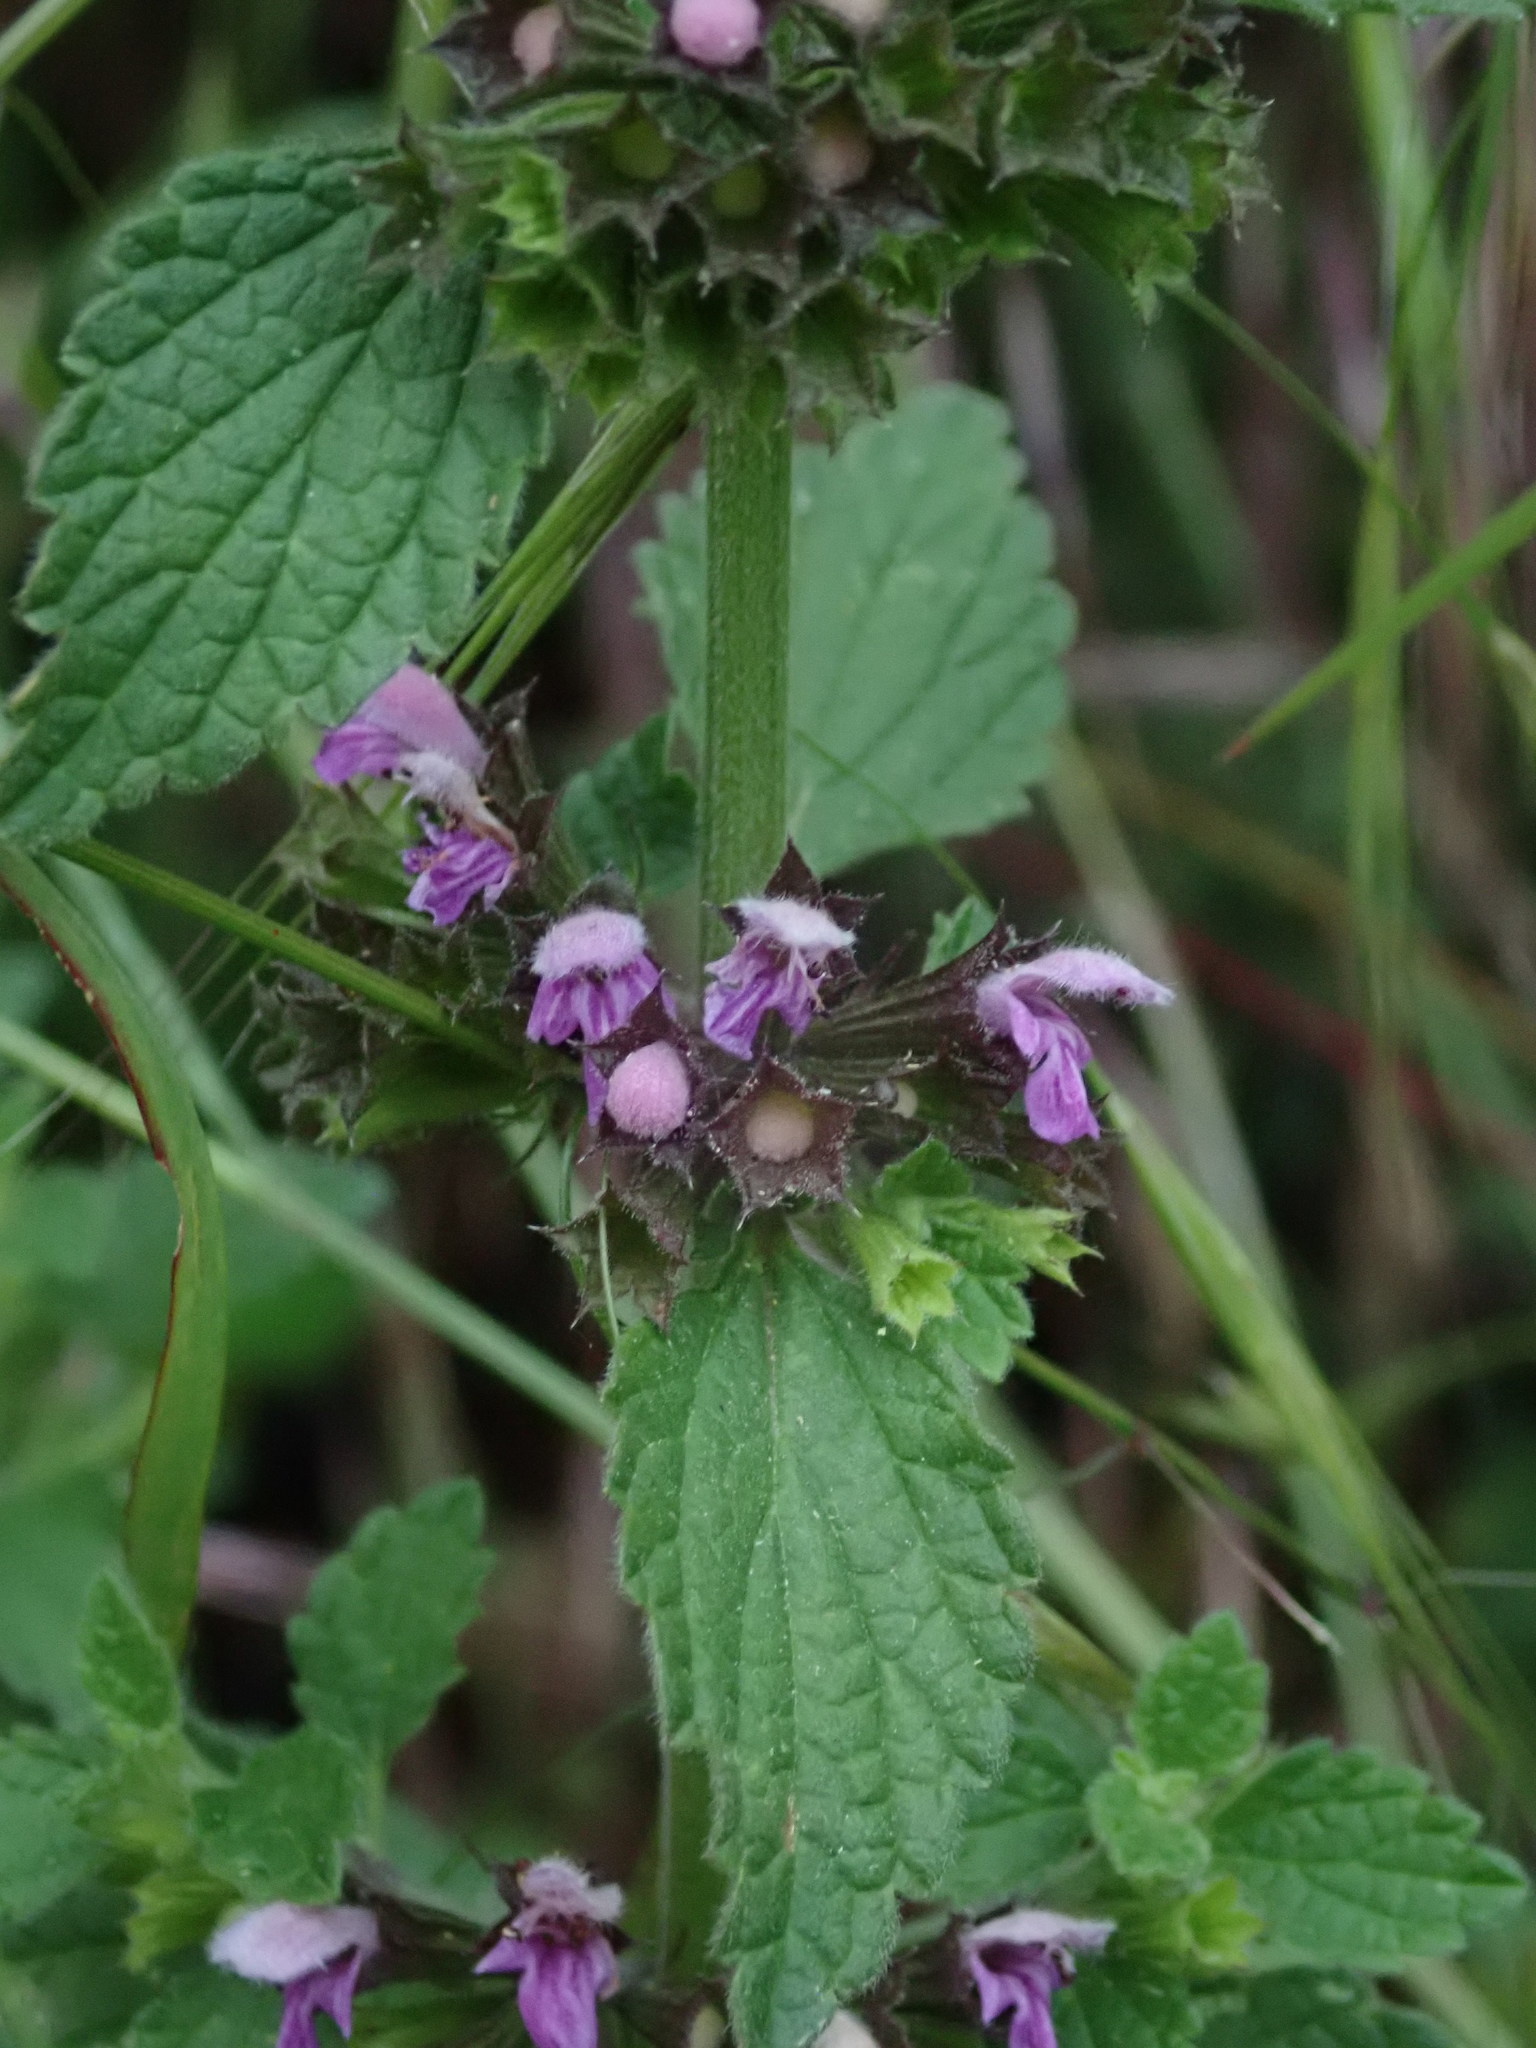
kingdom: Plantae
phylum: Tracheophyta
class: Magnoliopsida
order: Lamiales
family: Lamiaceae
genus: Ballota
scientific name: Ballota nigra
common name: Black horehound
